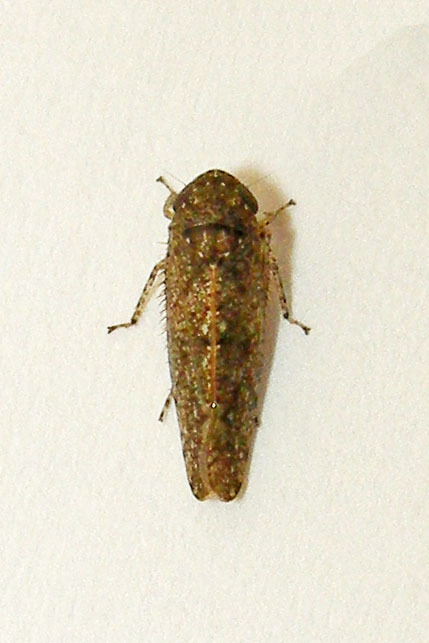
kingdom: Animalia
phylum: Arthropoda
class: Insecta
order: Hemiptera
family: Cicadellidae
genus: Paraphlepsius
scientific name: Paraphlepsius irroratus
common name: Brown speckled leafhopper
